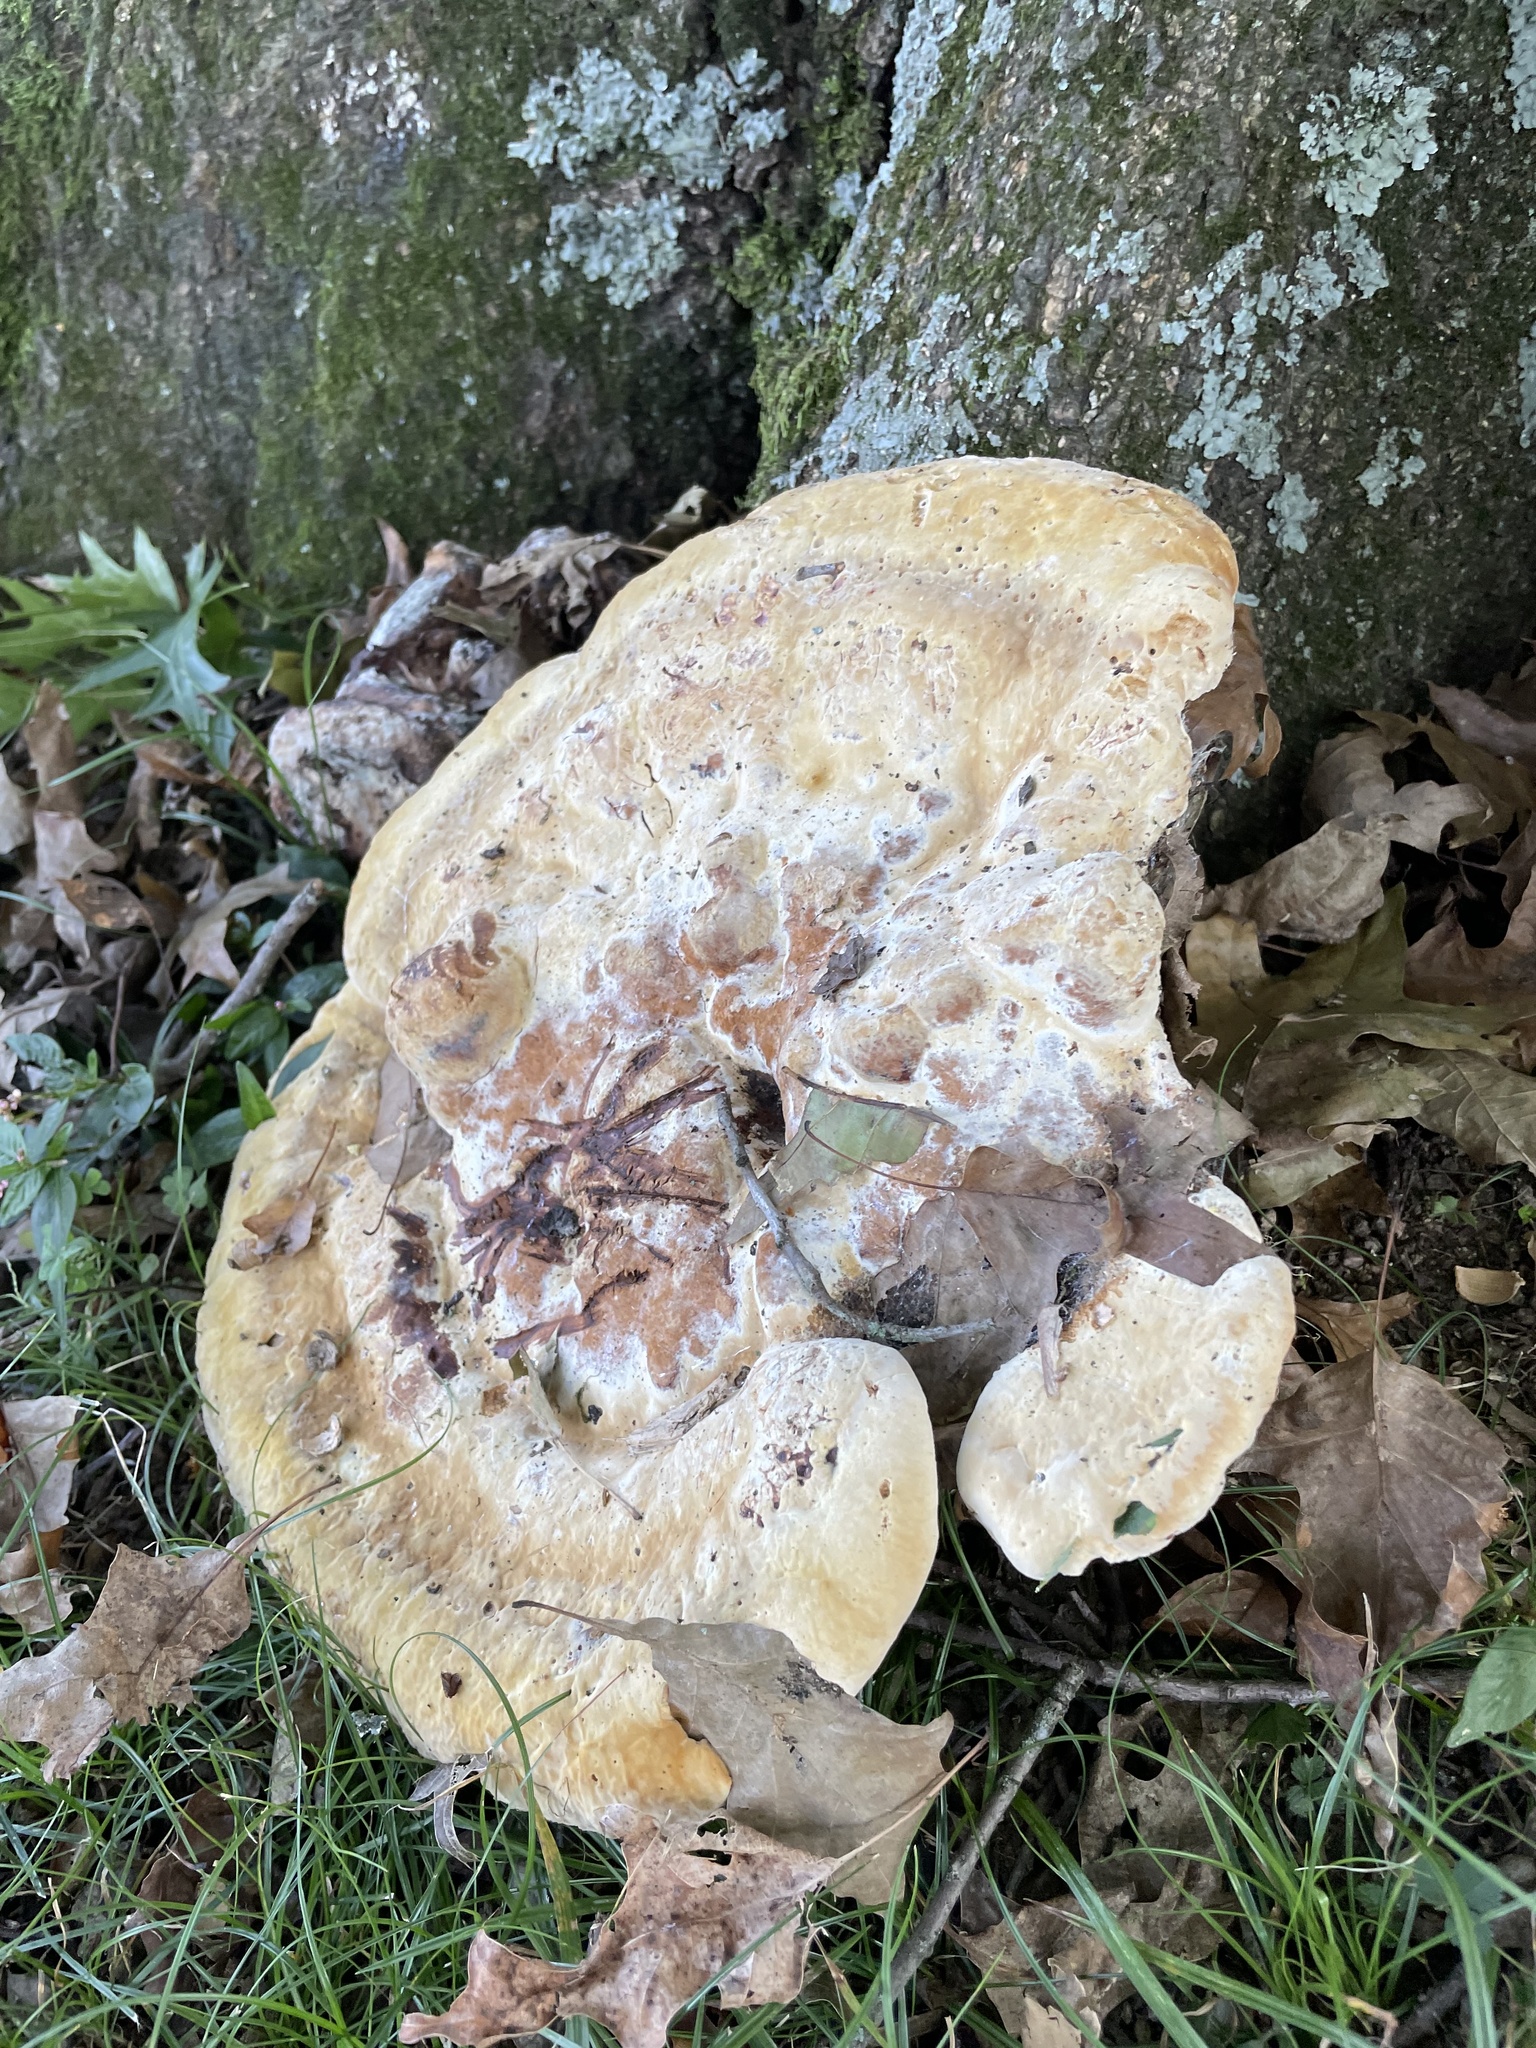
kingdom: Fungi
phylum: Basidiomycota
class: Agaricomycetes
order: Hymenochaetales
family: Hymenochaetaceae
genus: Pseudoinonotus
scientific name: Pseudoinonotus dryadeus
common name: Oak bracket
